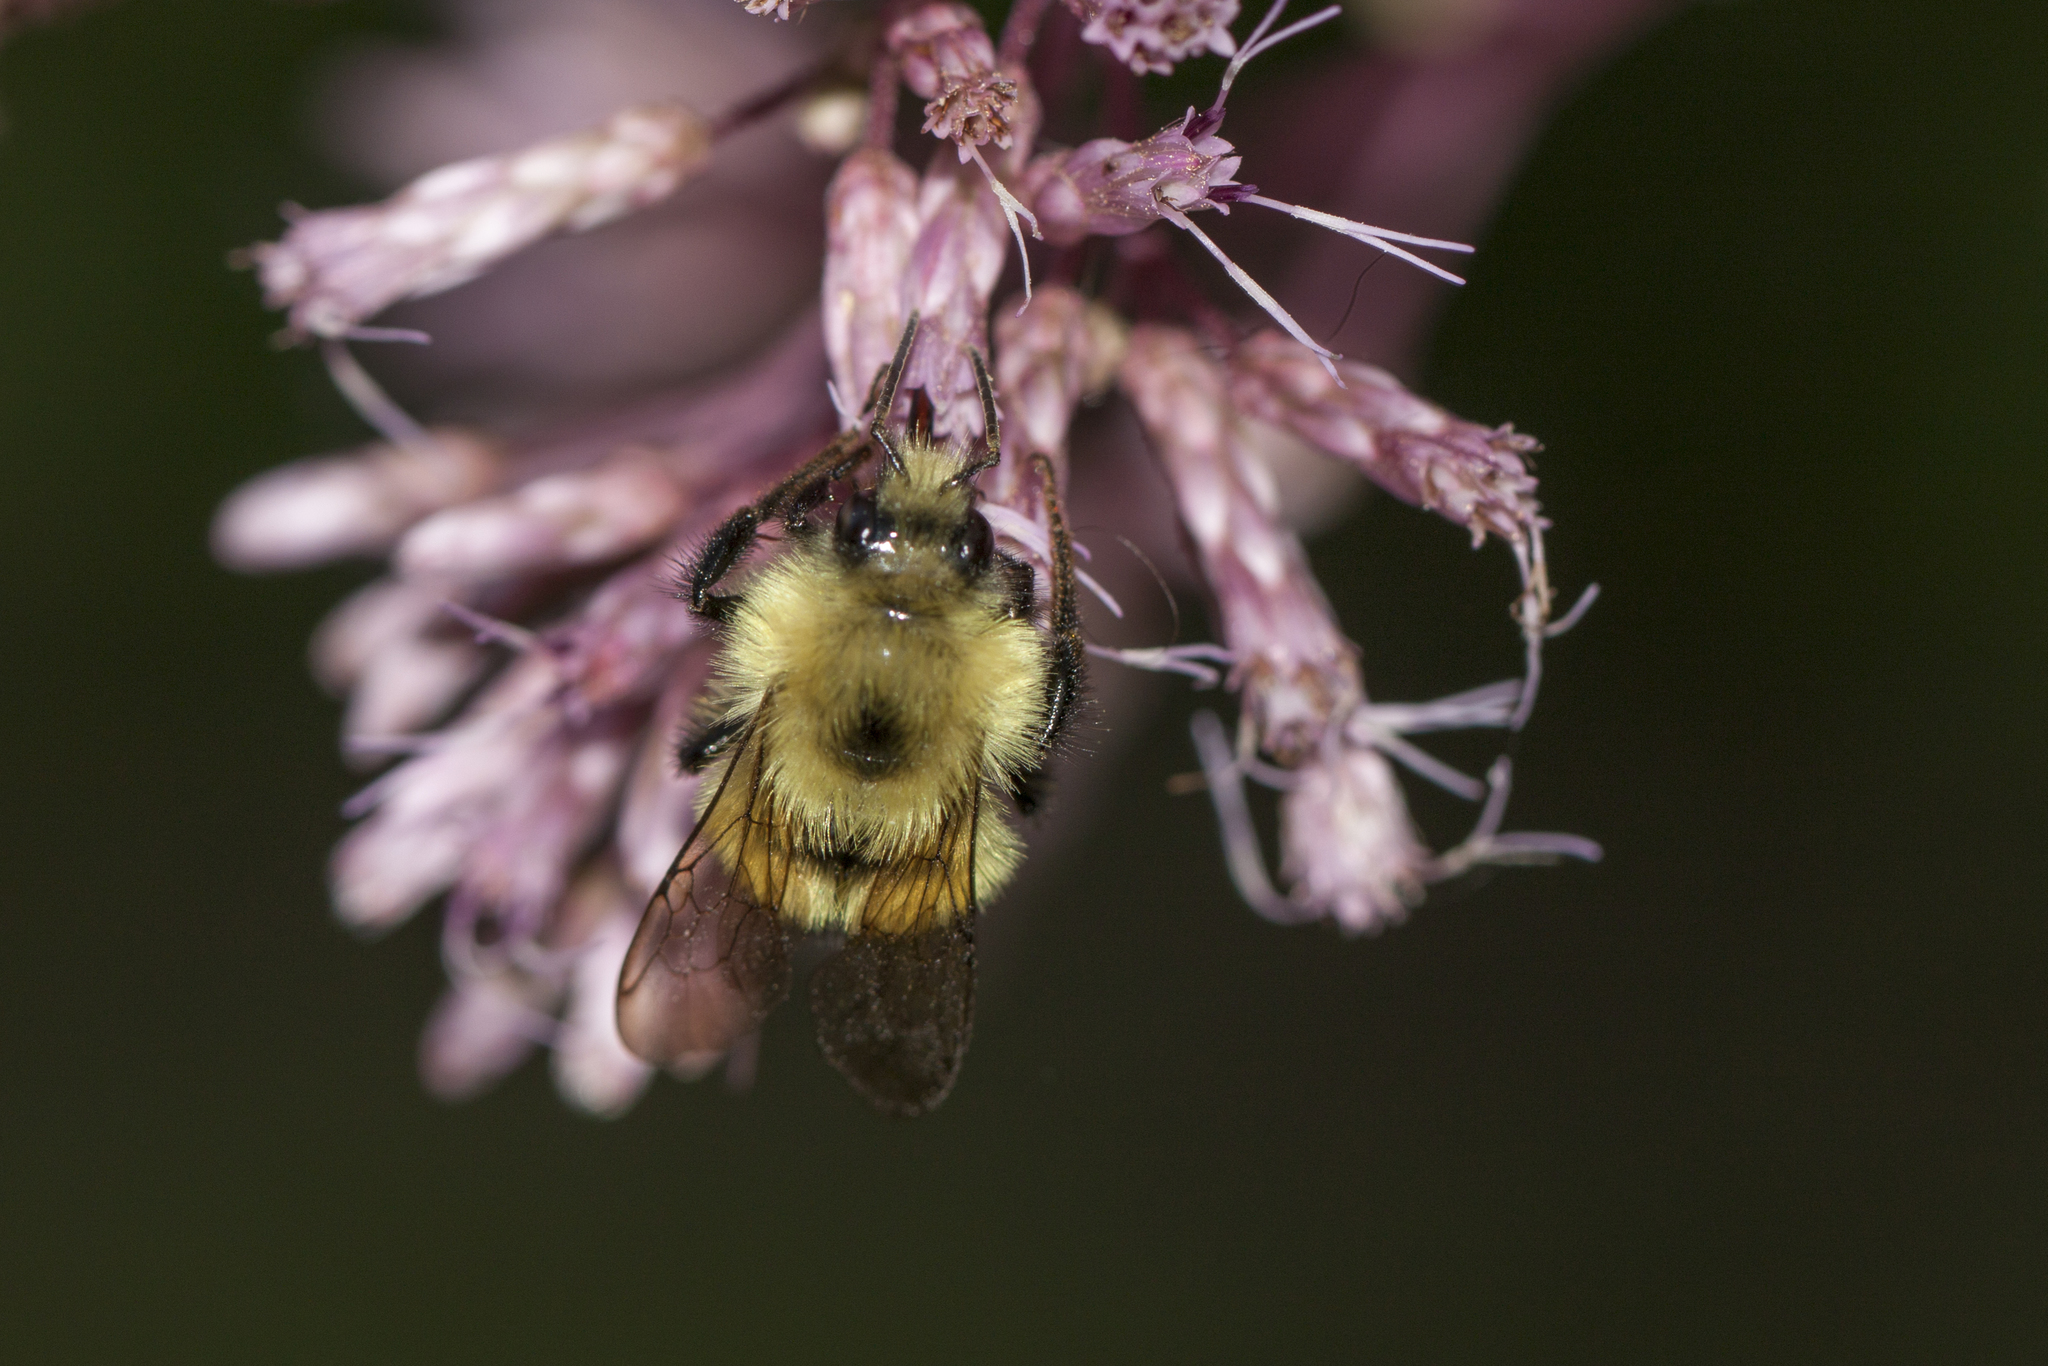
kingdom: Animalia
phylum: Arthropoda
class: Insecta
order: Hymenoptera
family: Apidae
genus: Pyrobombus
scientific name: Pyrobombus
